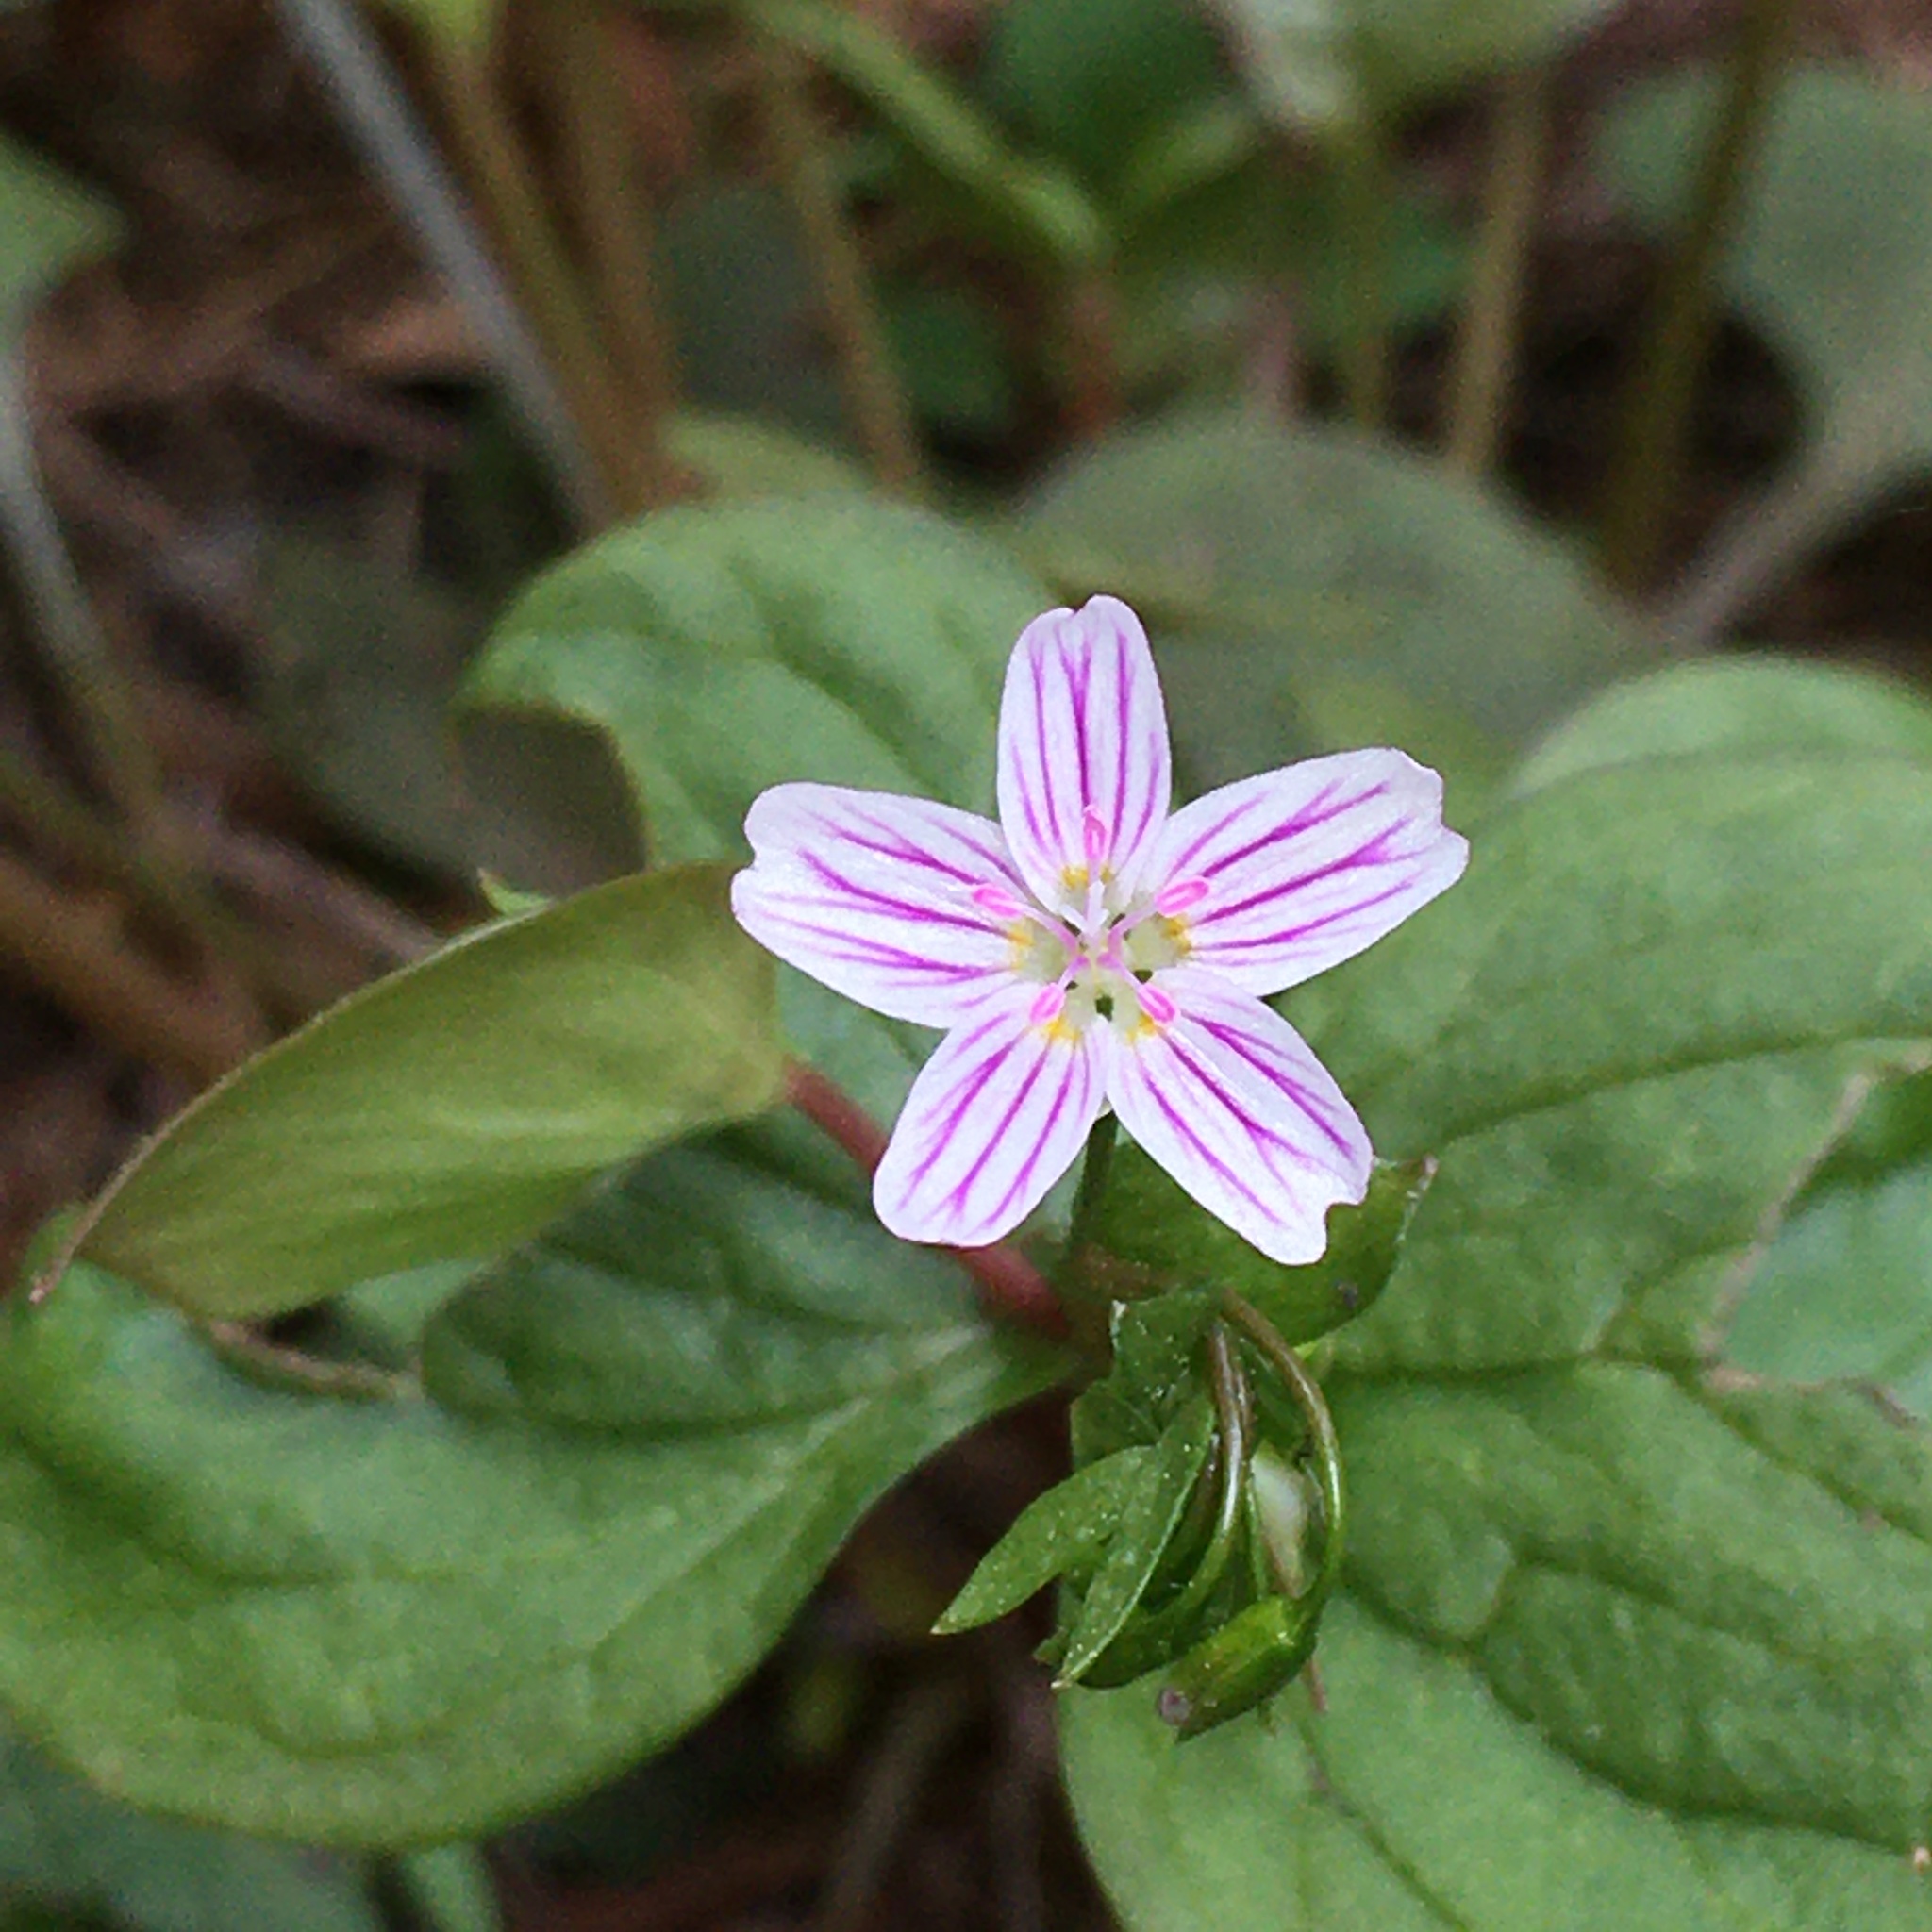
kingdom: Plantae
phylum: Tracheophyta
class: Magnoliopsida
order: Caryophyllales
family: Montiaceae
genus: Claytonia
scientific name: Claytonia sibirica
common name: Pink purslane
